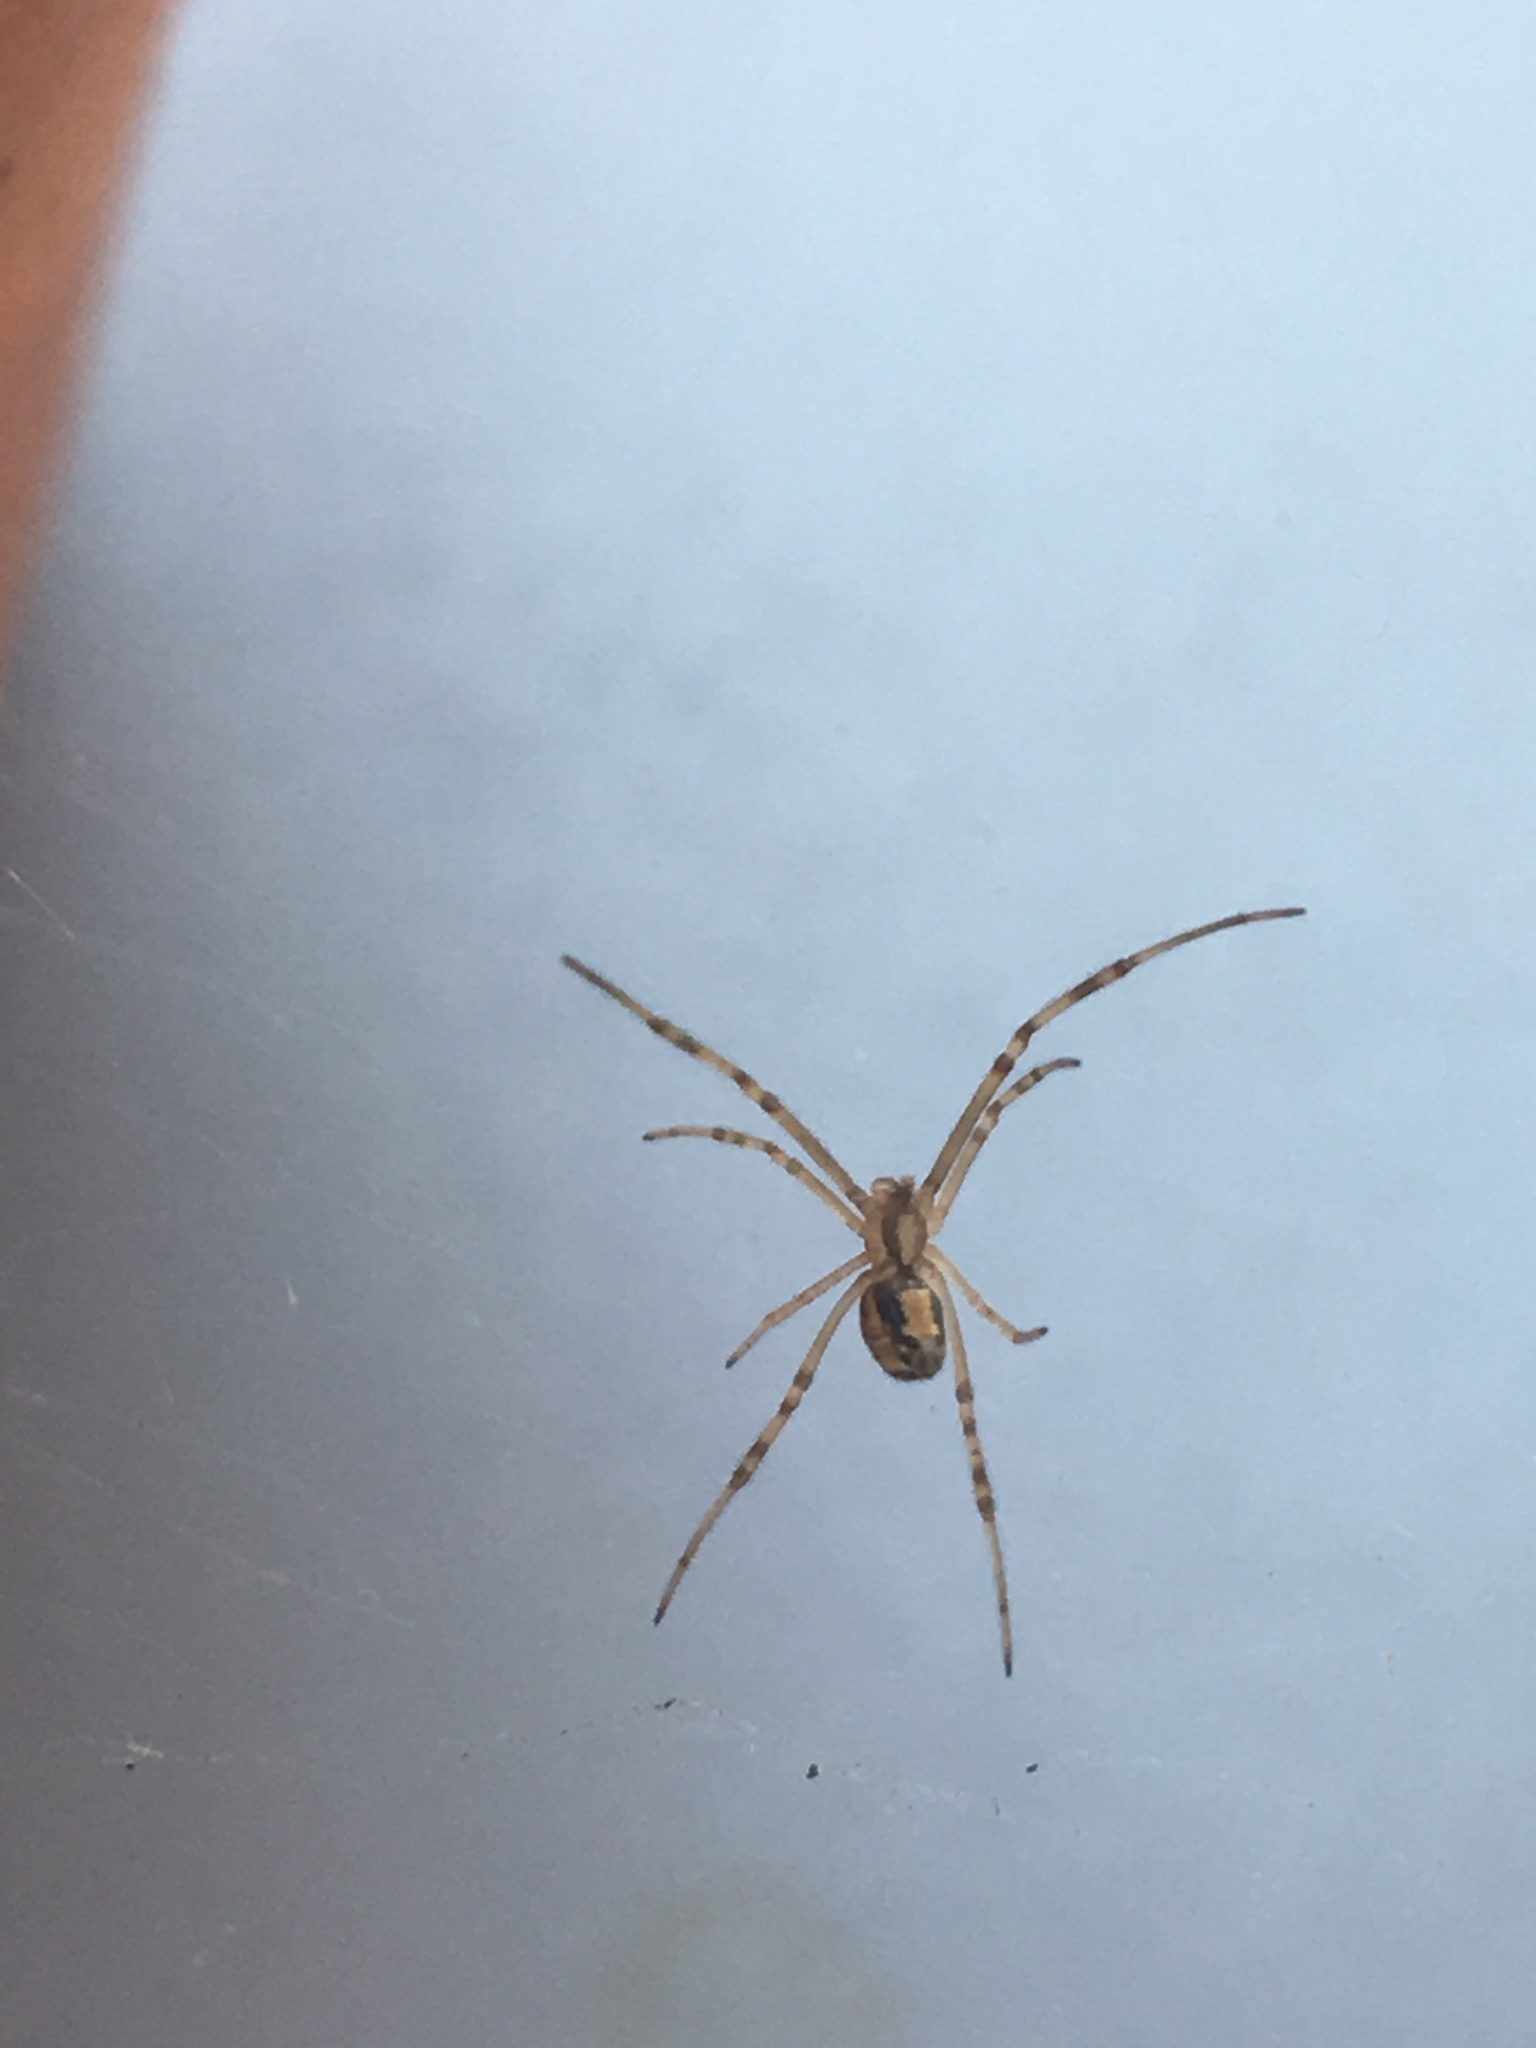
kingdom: Animalia
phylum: Arthropoda
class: Arachnida
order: Araneae
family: Theridiidae
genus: Latrodectus
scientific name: Latrodectus geometricus
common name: Brown widow spider
